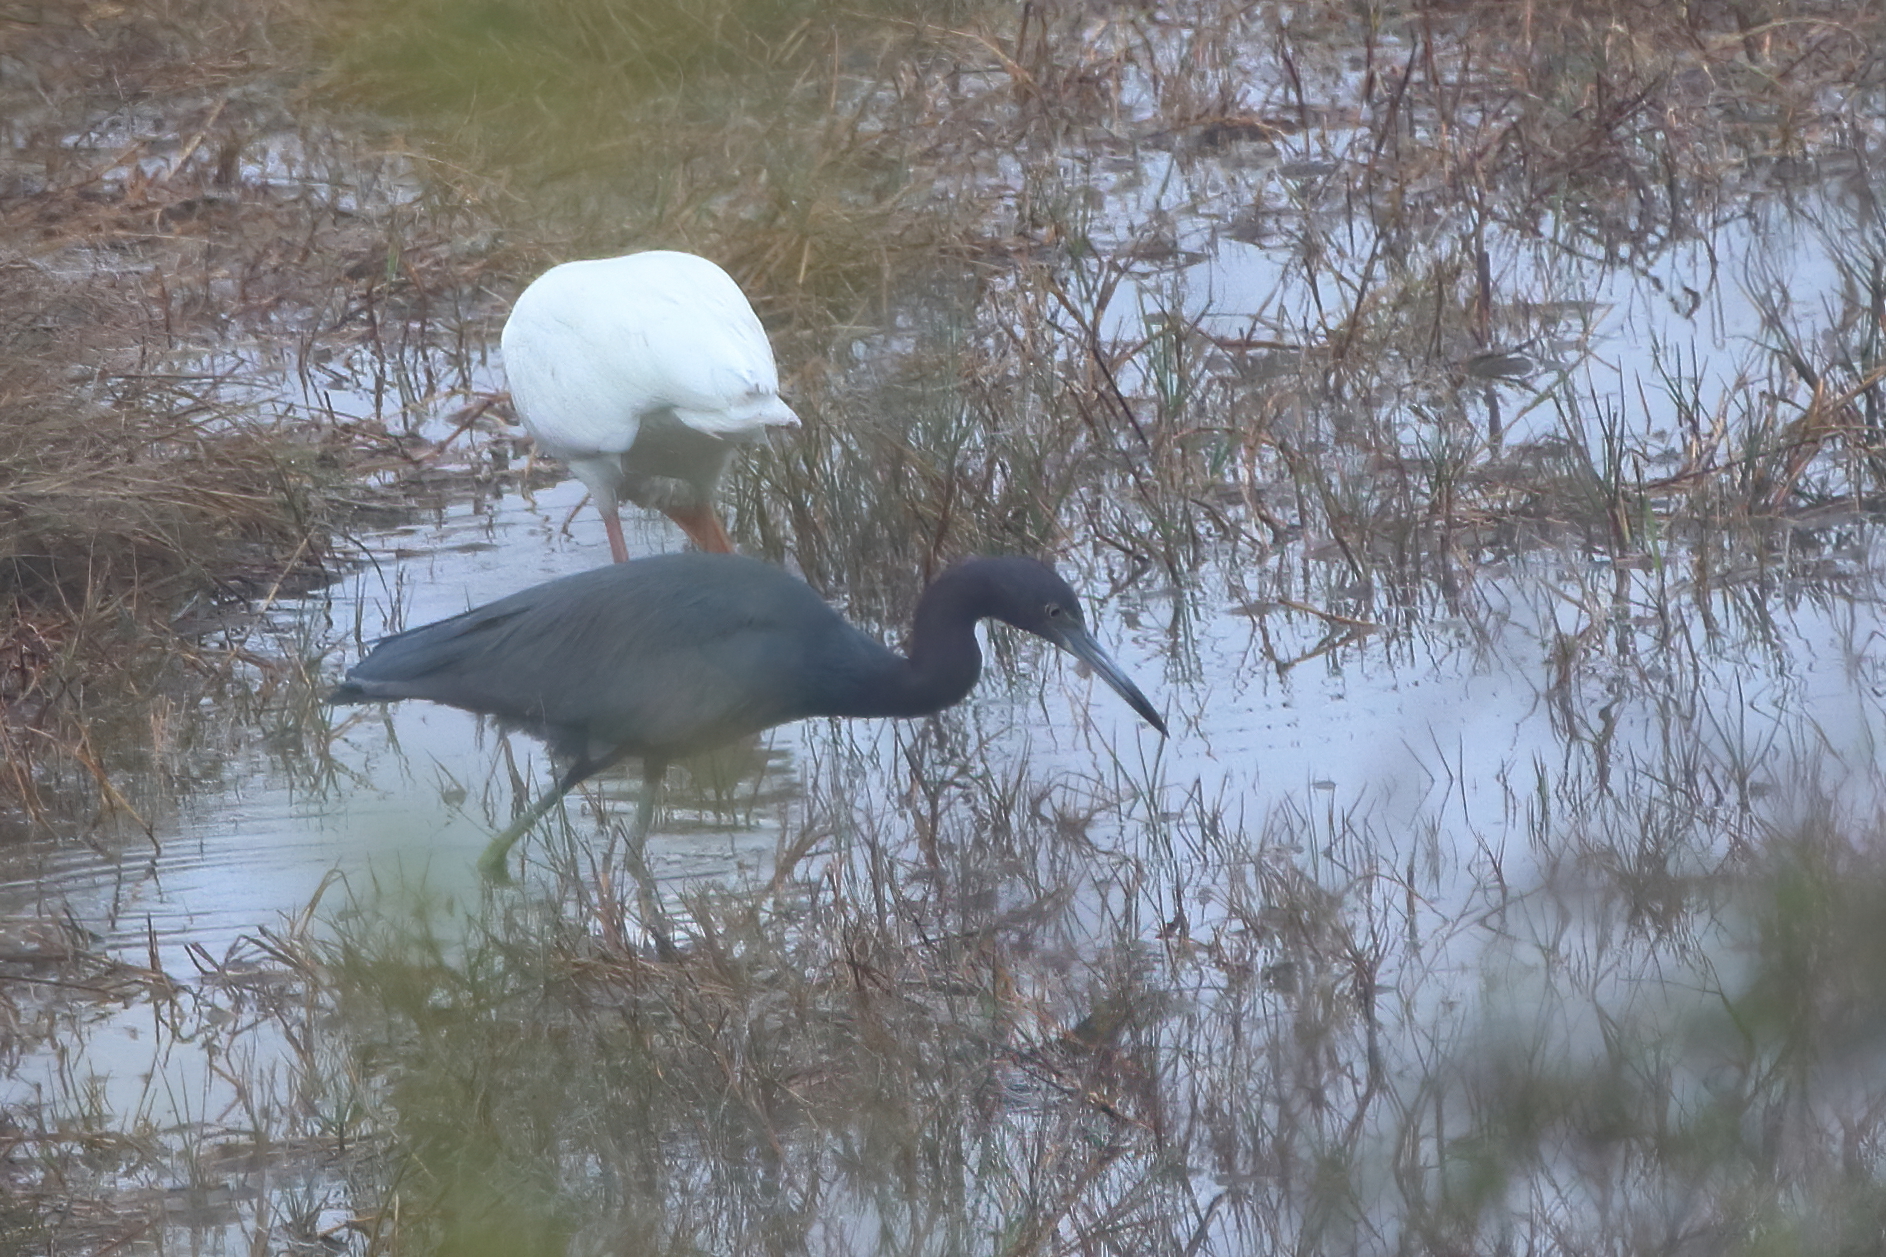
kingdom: Animalia
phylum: Chordata
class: Aves
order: Pelecaniformes
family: Ardeidae
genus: Egretta
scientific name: Egretta caerulea
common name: Little blue heron
